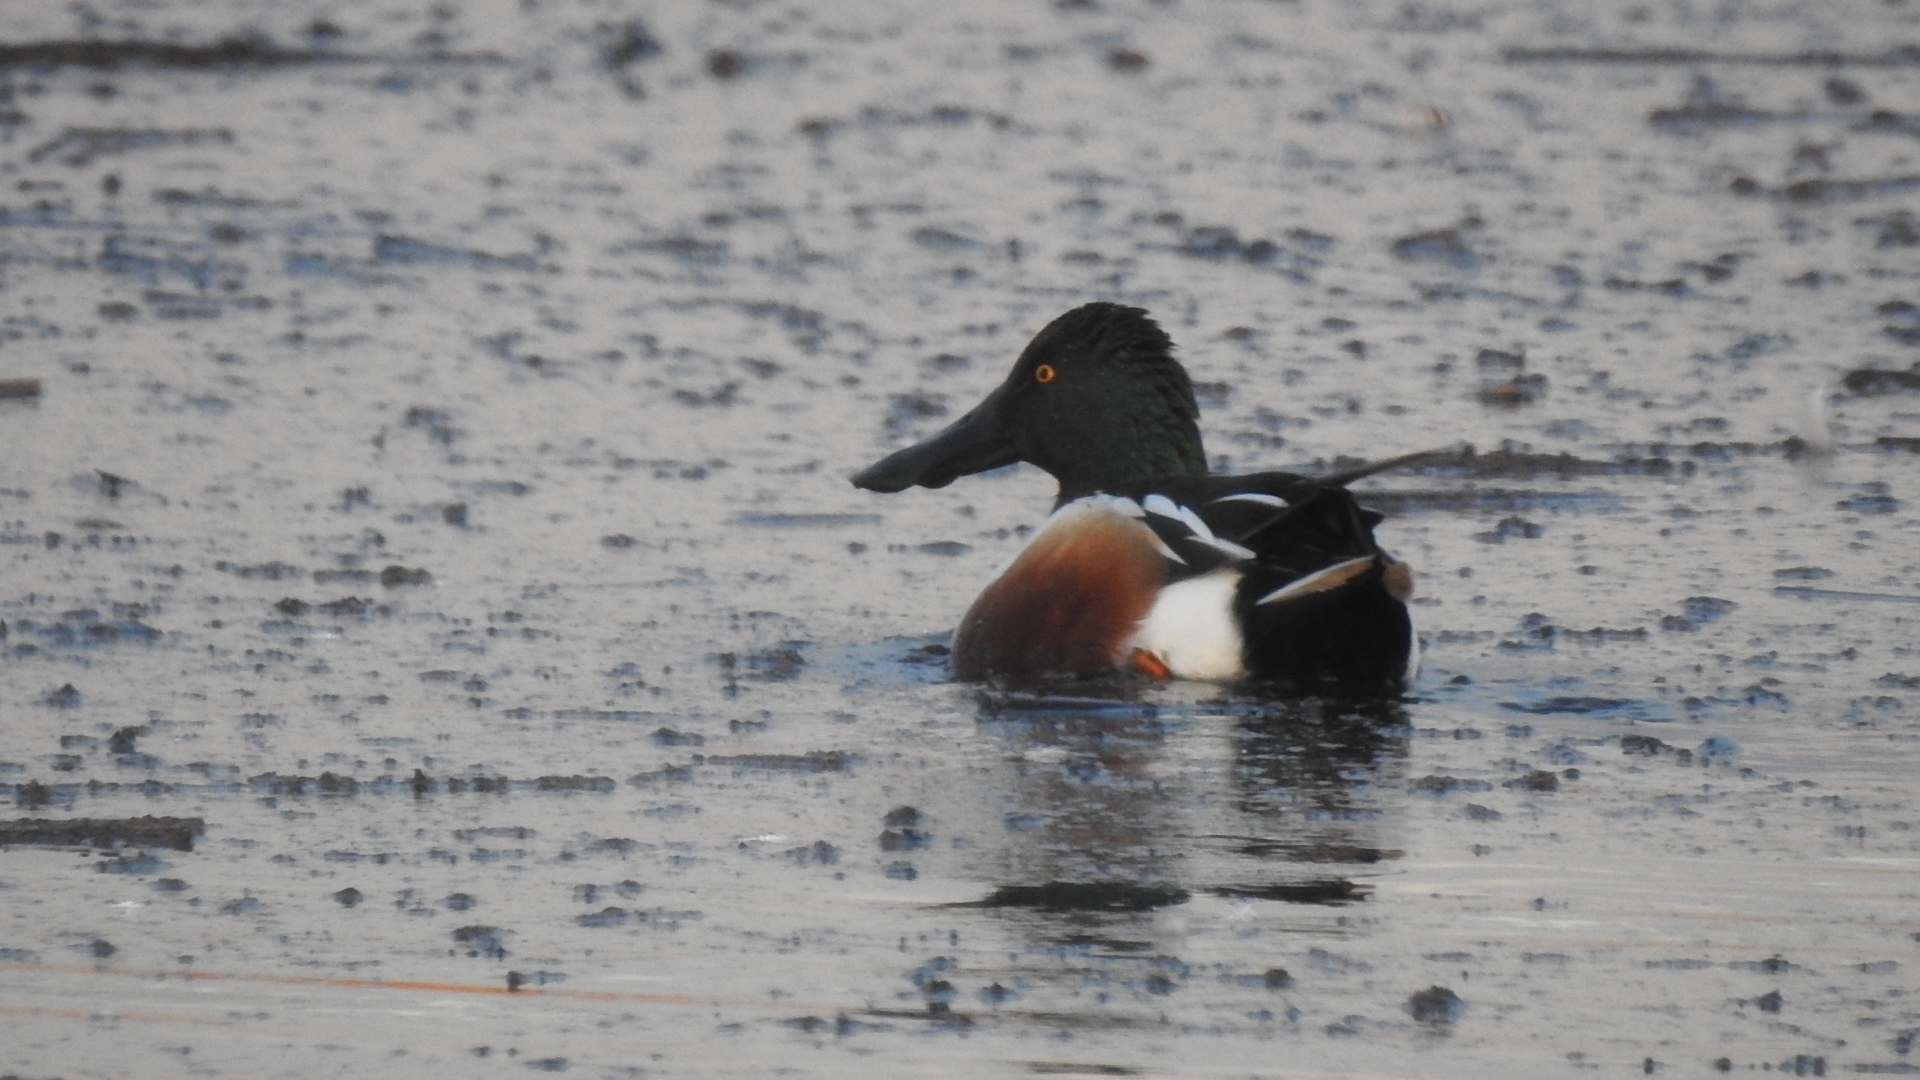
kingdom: Animalia
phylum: Chordata
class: Aves
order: Anseriformes
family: Anatidae
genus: Spatula
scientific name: Spatula clypeata
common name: Northern shoveler
